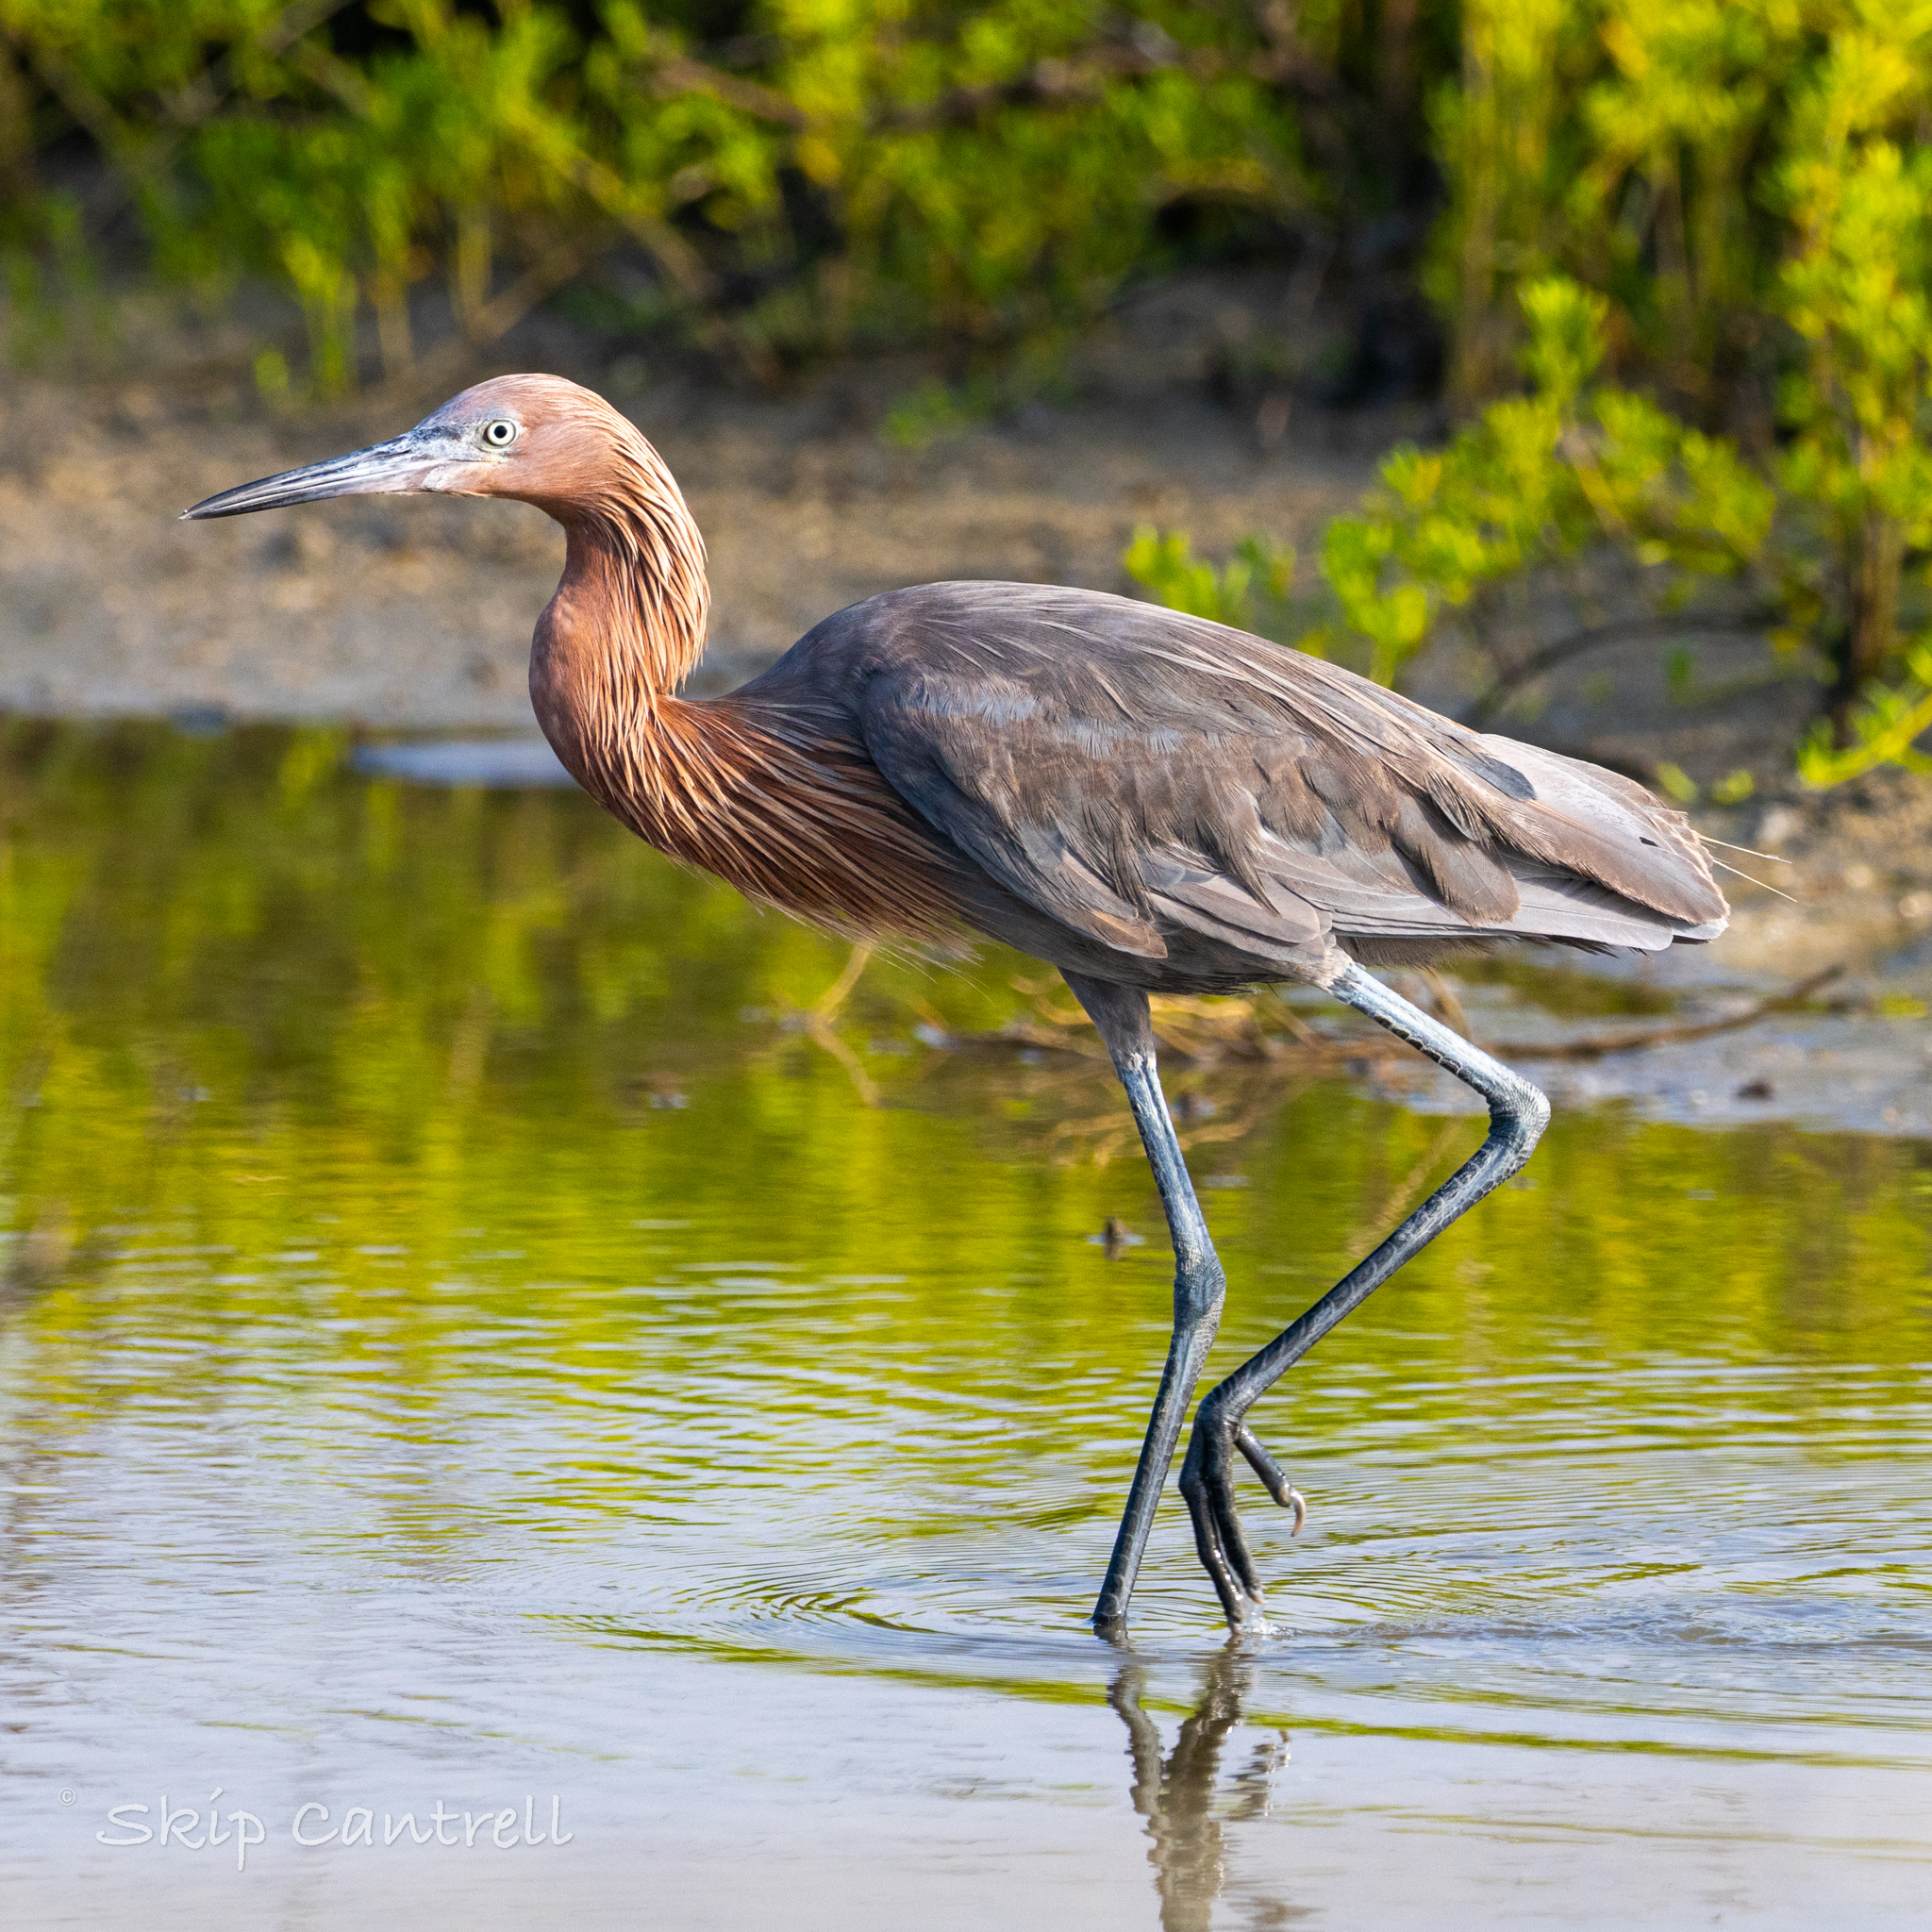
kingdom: Animalia
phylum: Chordata
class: Aves
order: Pelecaniformes
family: Ardeidae
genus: Egretta
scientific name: Egretta rufescens
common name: Reddish egret
